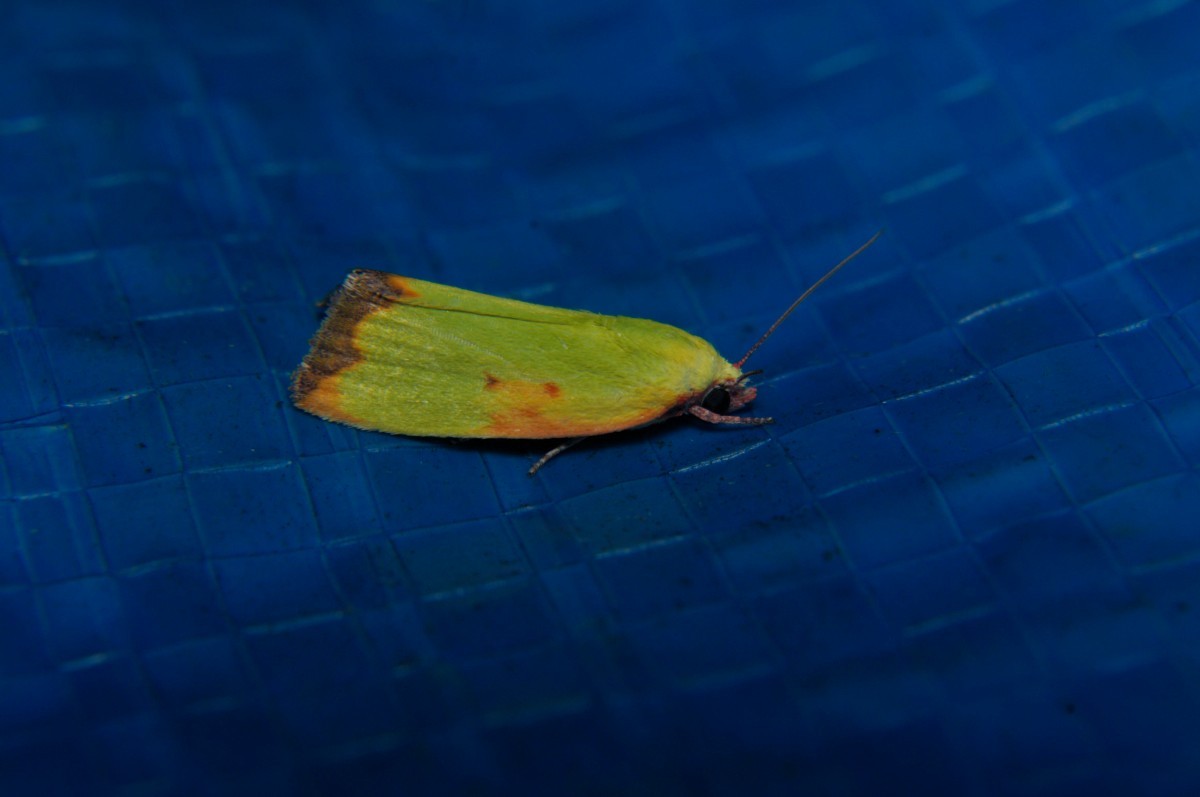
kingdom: Animalia
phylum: Arthropoda
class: Insecta
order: Lepidoptera
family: Nolidae
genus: Earias
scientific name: Earias cupreoviridis
